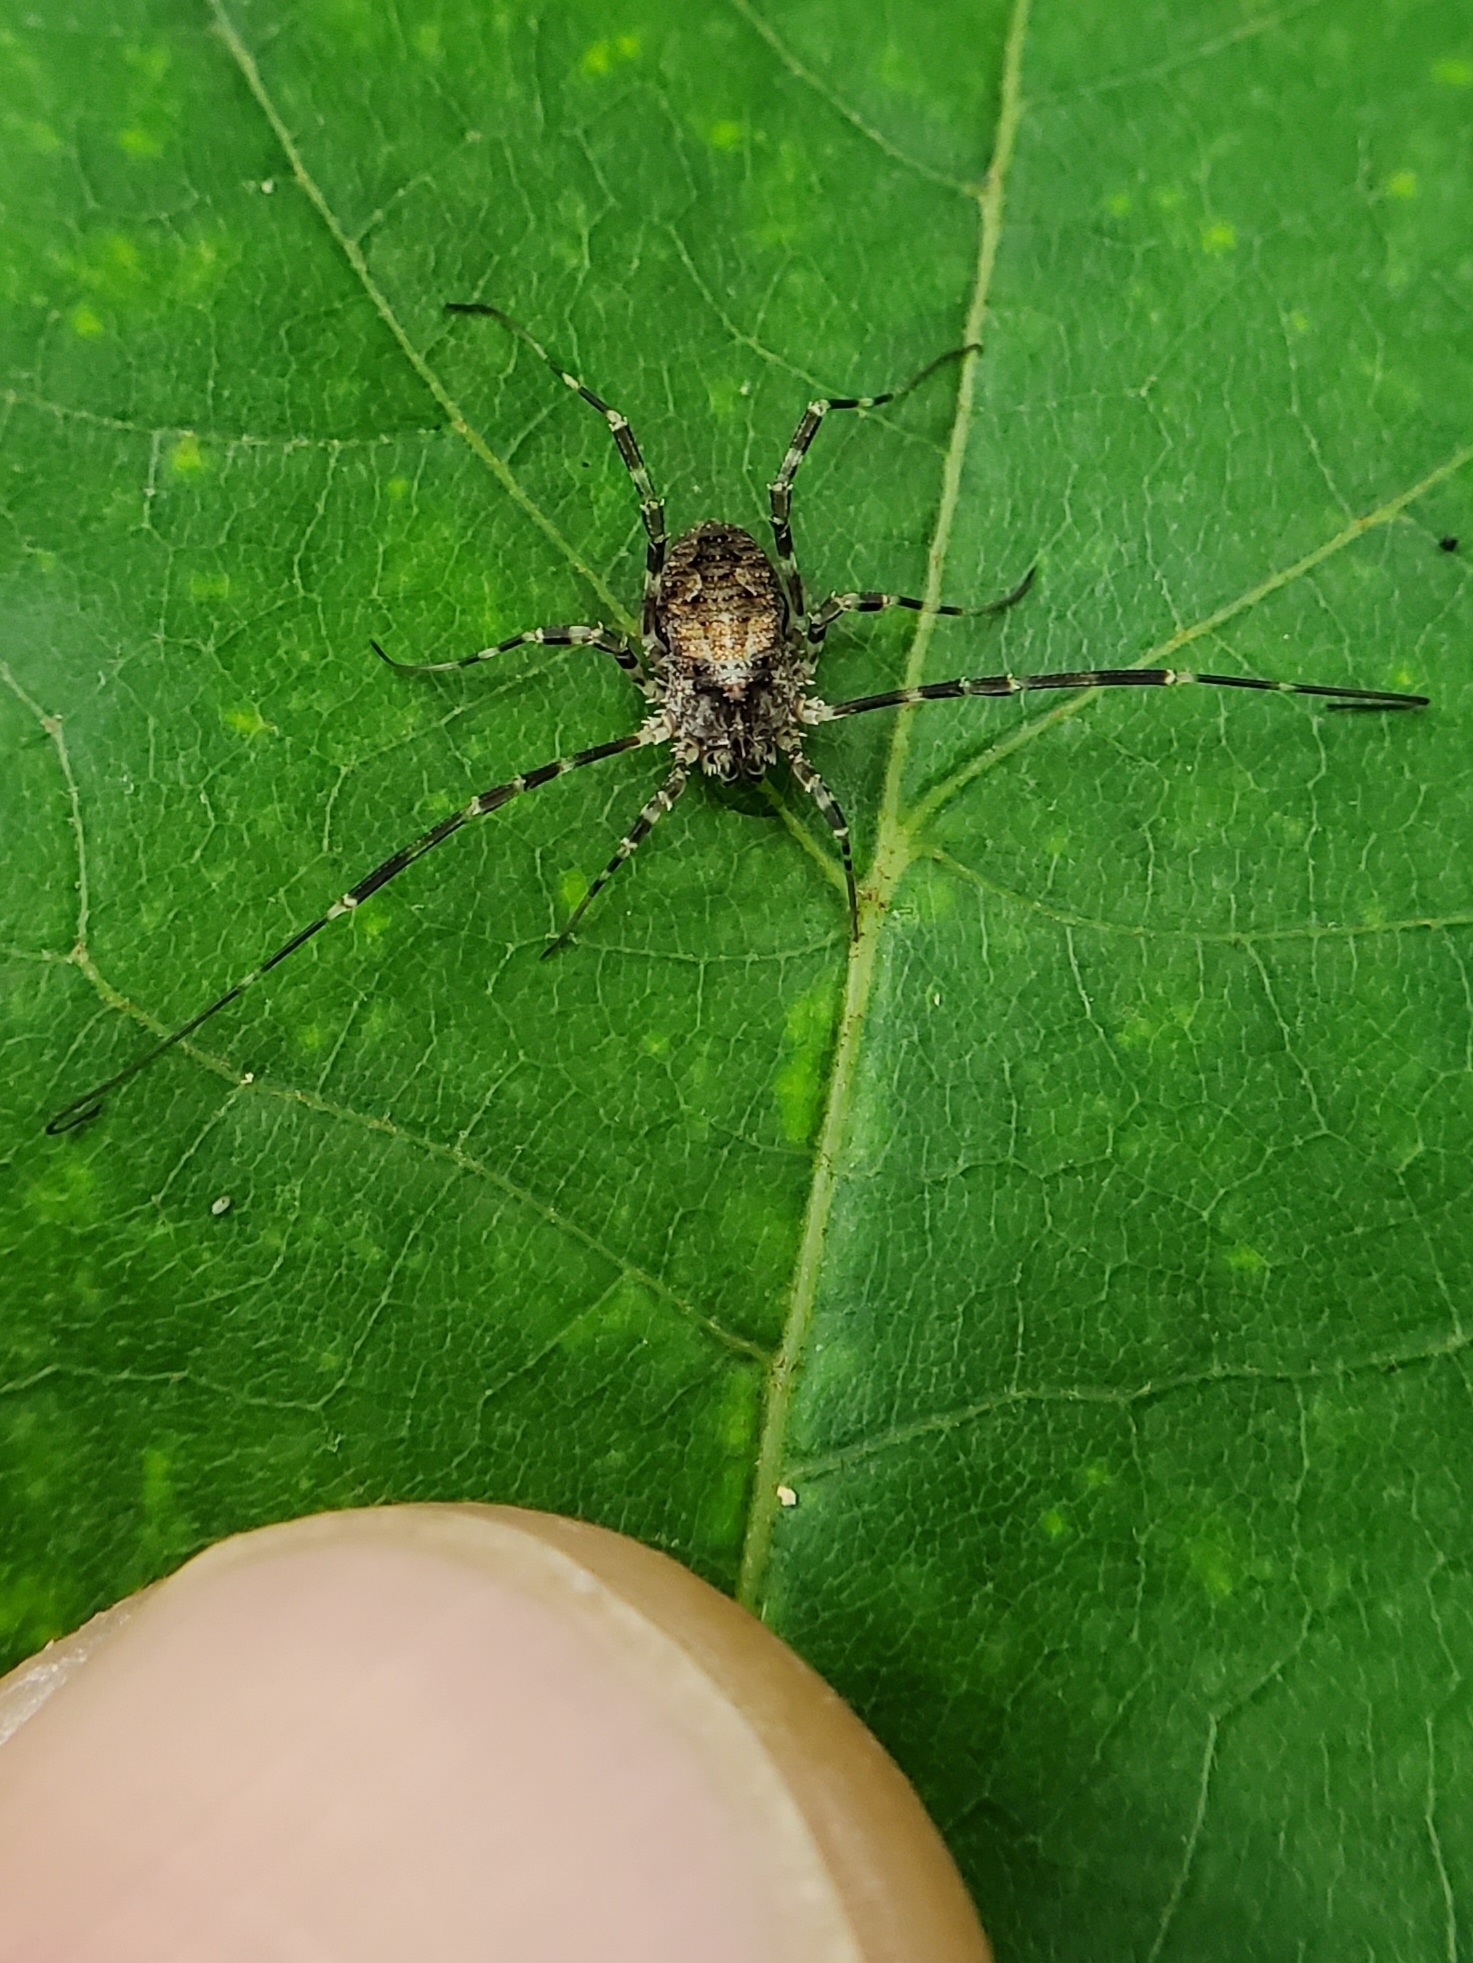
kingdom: Animalia
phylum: Arthropoda
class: Arachnida
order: Opiliones
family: Phalangiidae
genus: Odiellus
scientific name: Odiellus pictus
